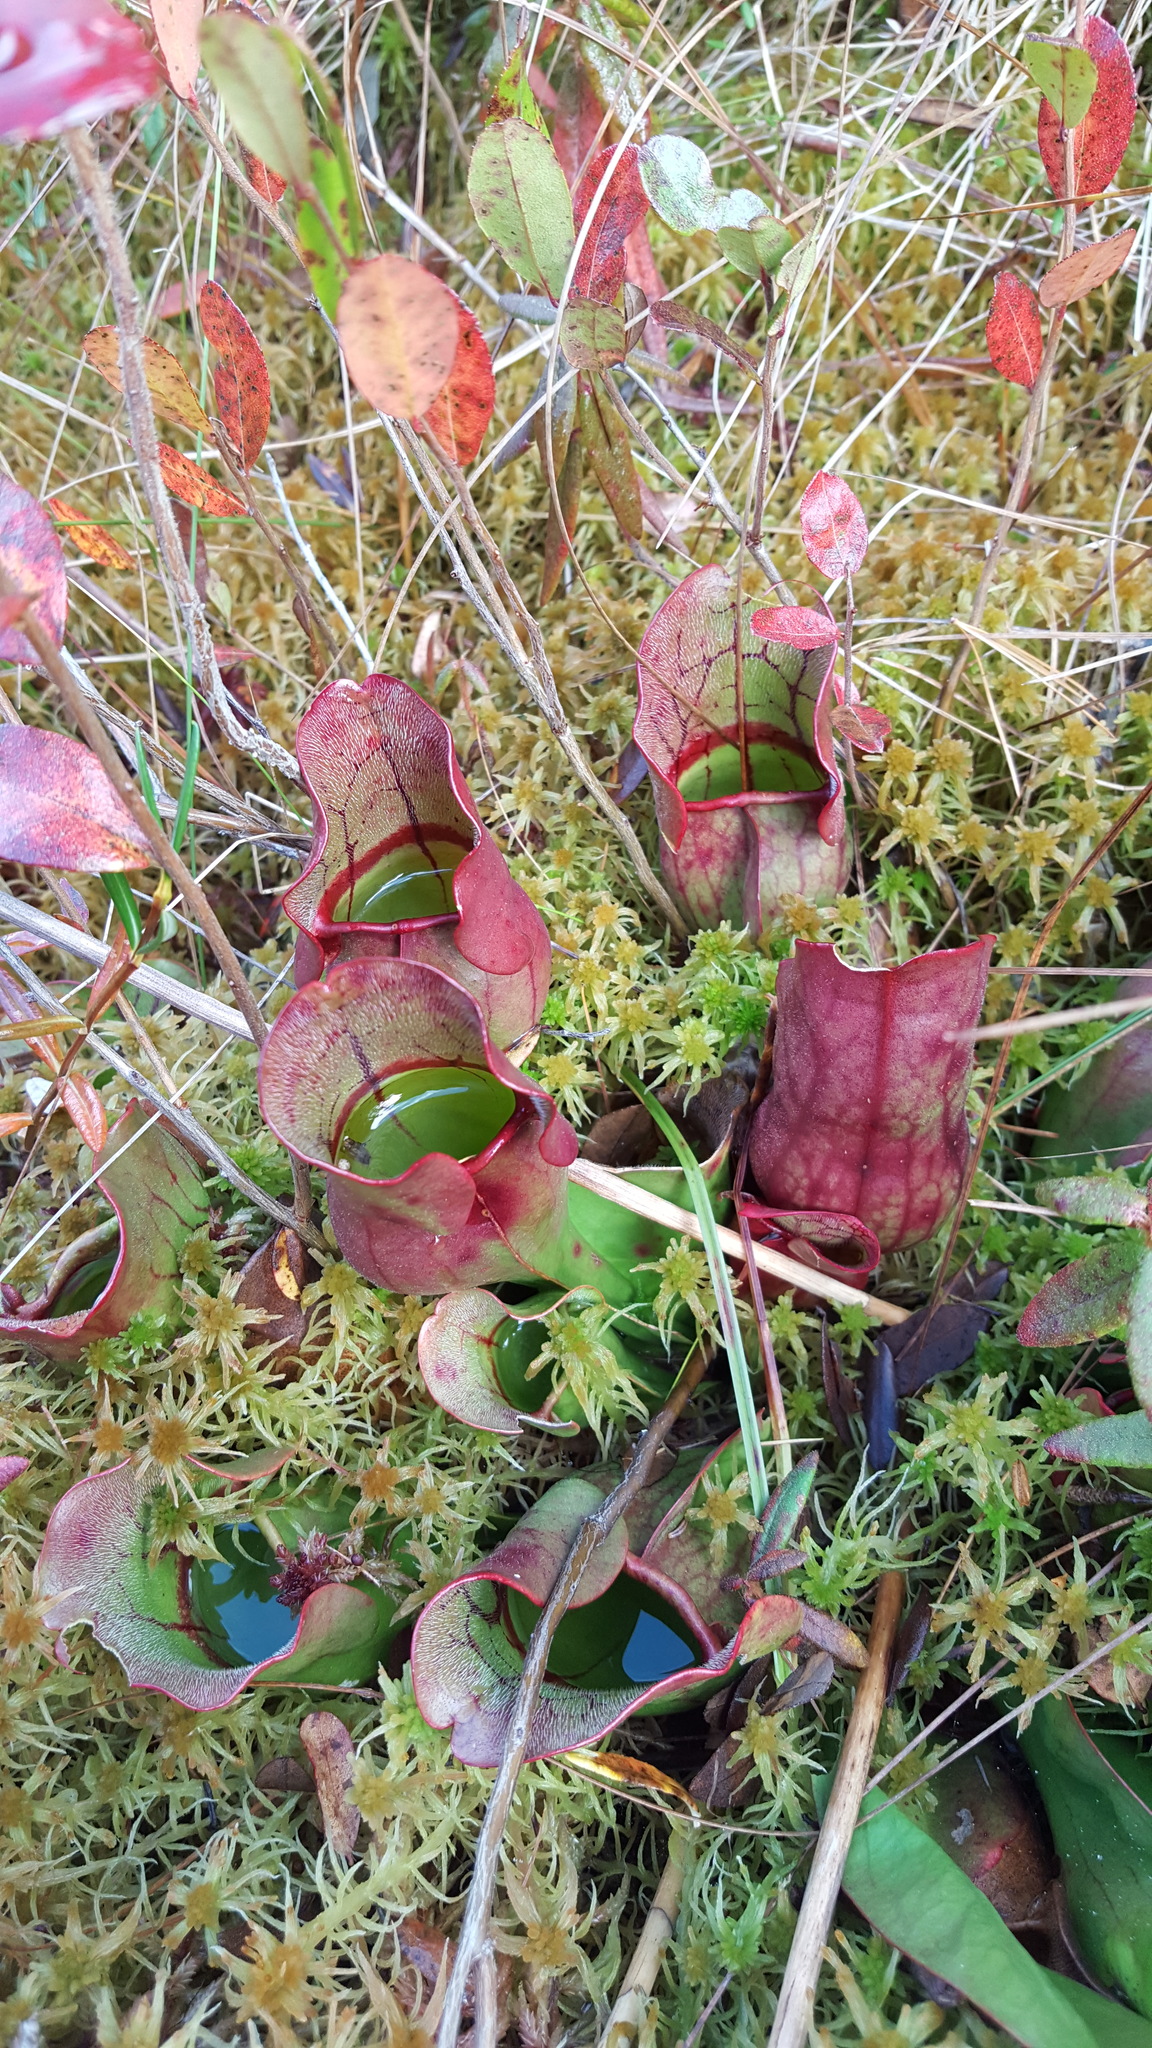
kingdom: Plantae
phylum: Tracheophyta
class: Magnoliopsida
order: Ericales
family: Sarraceniaceae
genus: Sarracenia
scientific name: Sarracenia purpurea
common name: Pitcherplant
